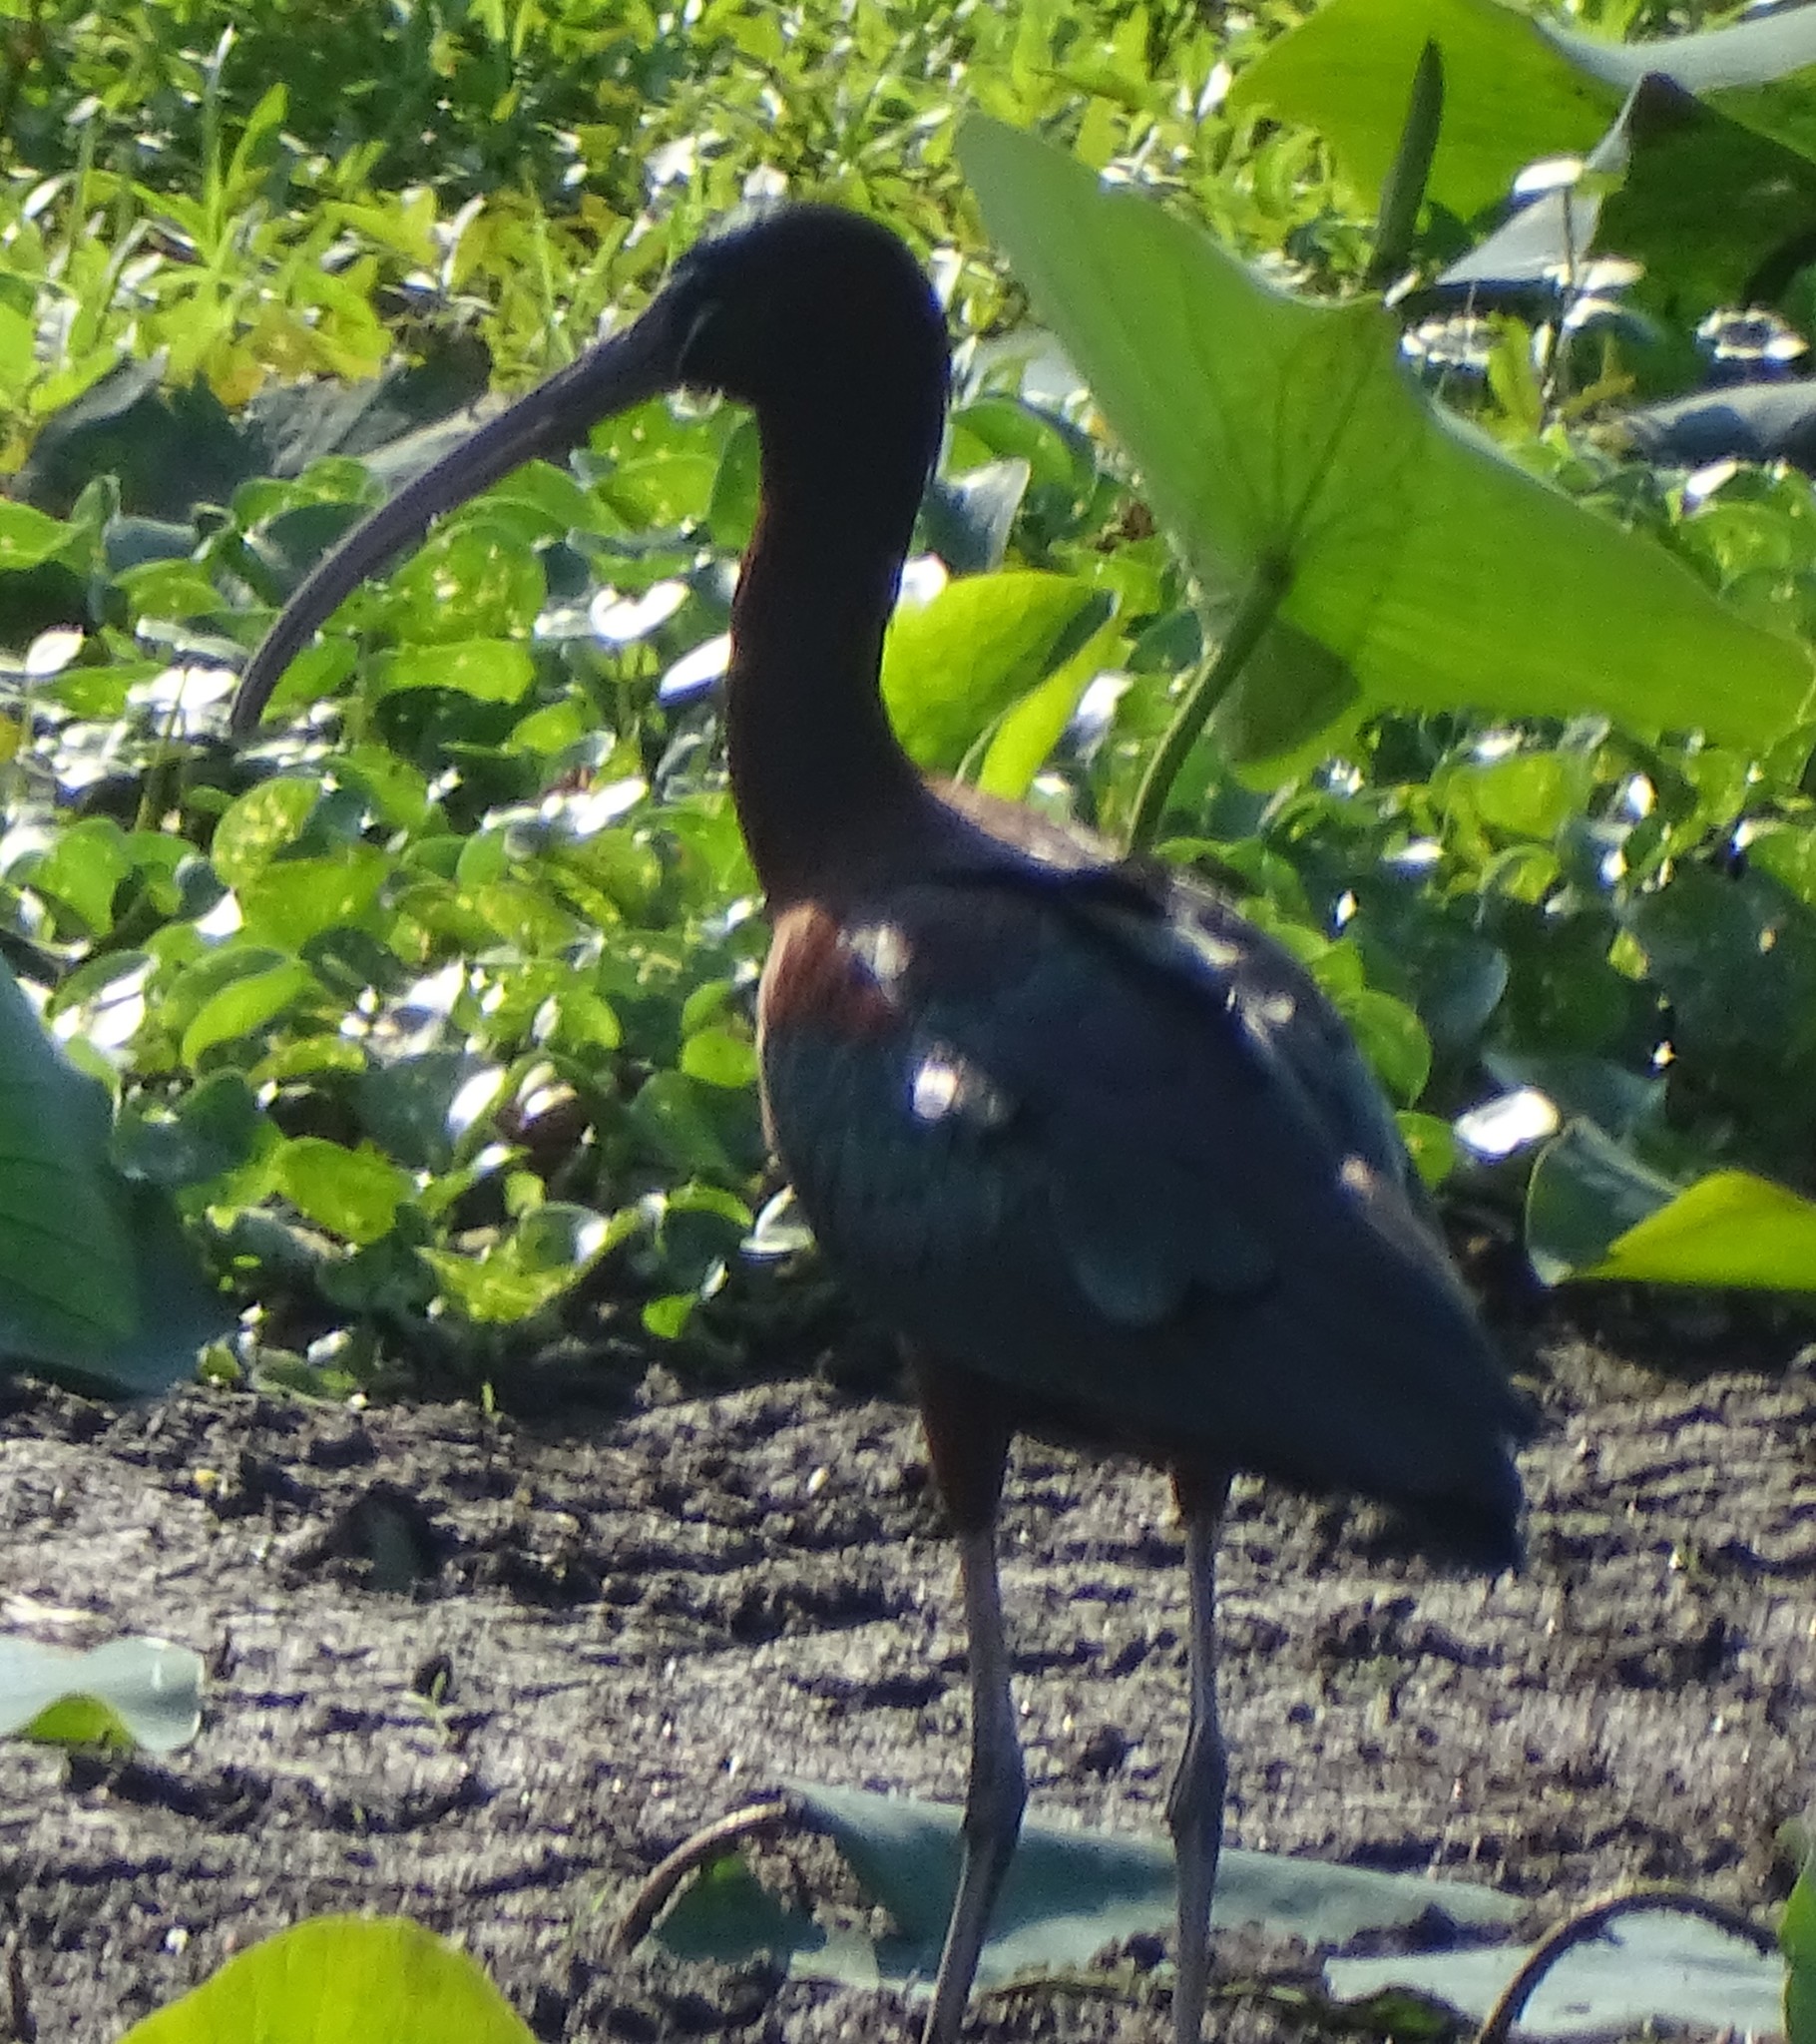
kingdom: Animalia
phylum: Chordata
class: Aves
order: Pelecaniformes
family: Threskiornithidae
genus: Plegadis
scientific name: Plegadis falcinellus
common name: Glossy ibis
